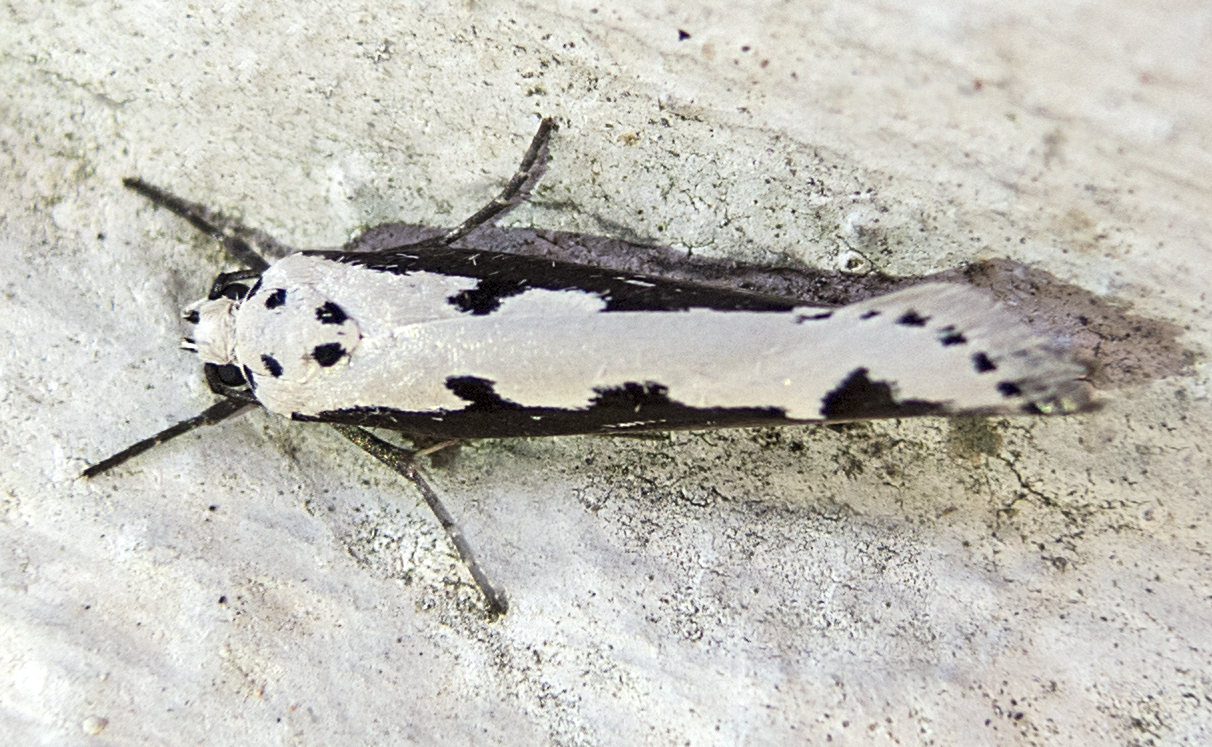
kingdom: Animalia
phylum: Arthropoda
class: Insecta
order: Lepidoptera
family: Ethmiidae
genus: Ethmia
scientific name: Ethmia bipunctella
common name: Bordered ermel
